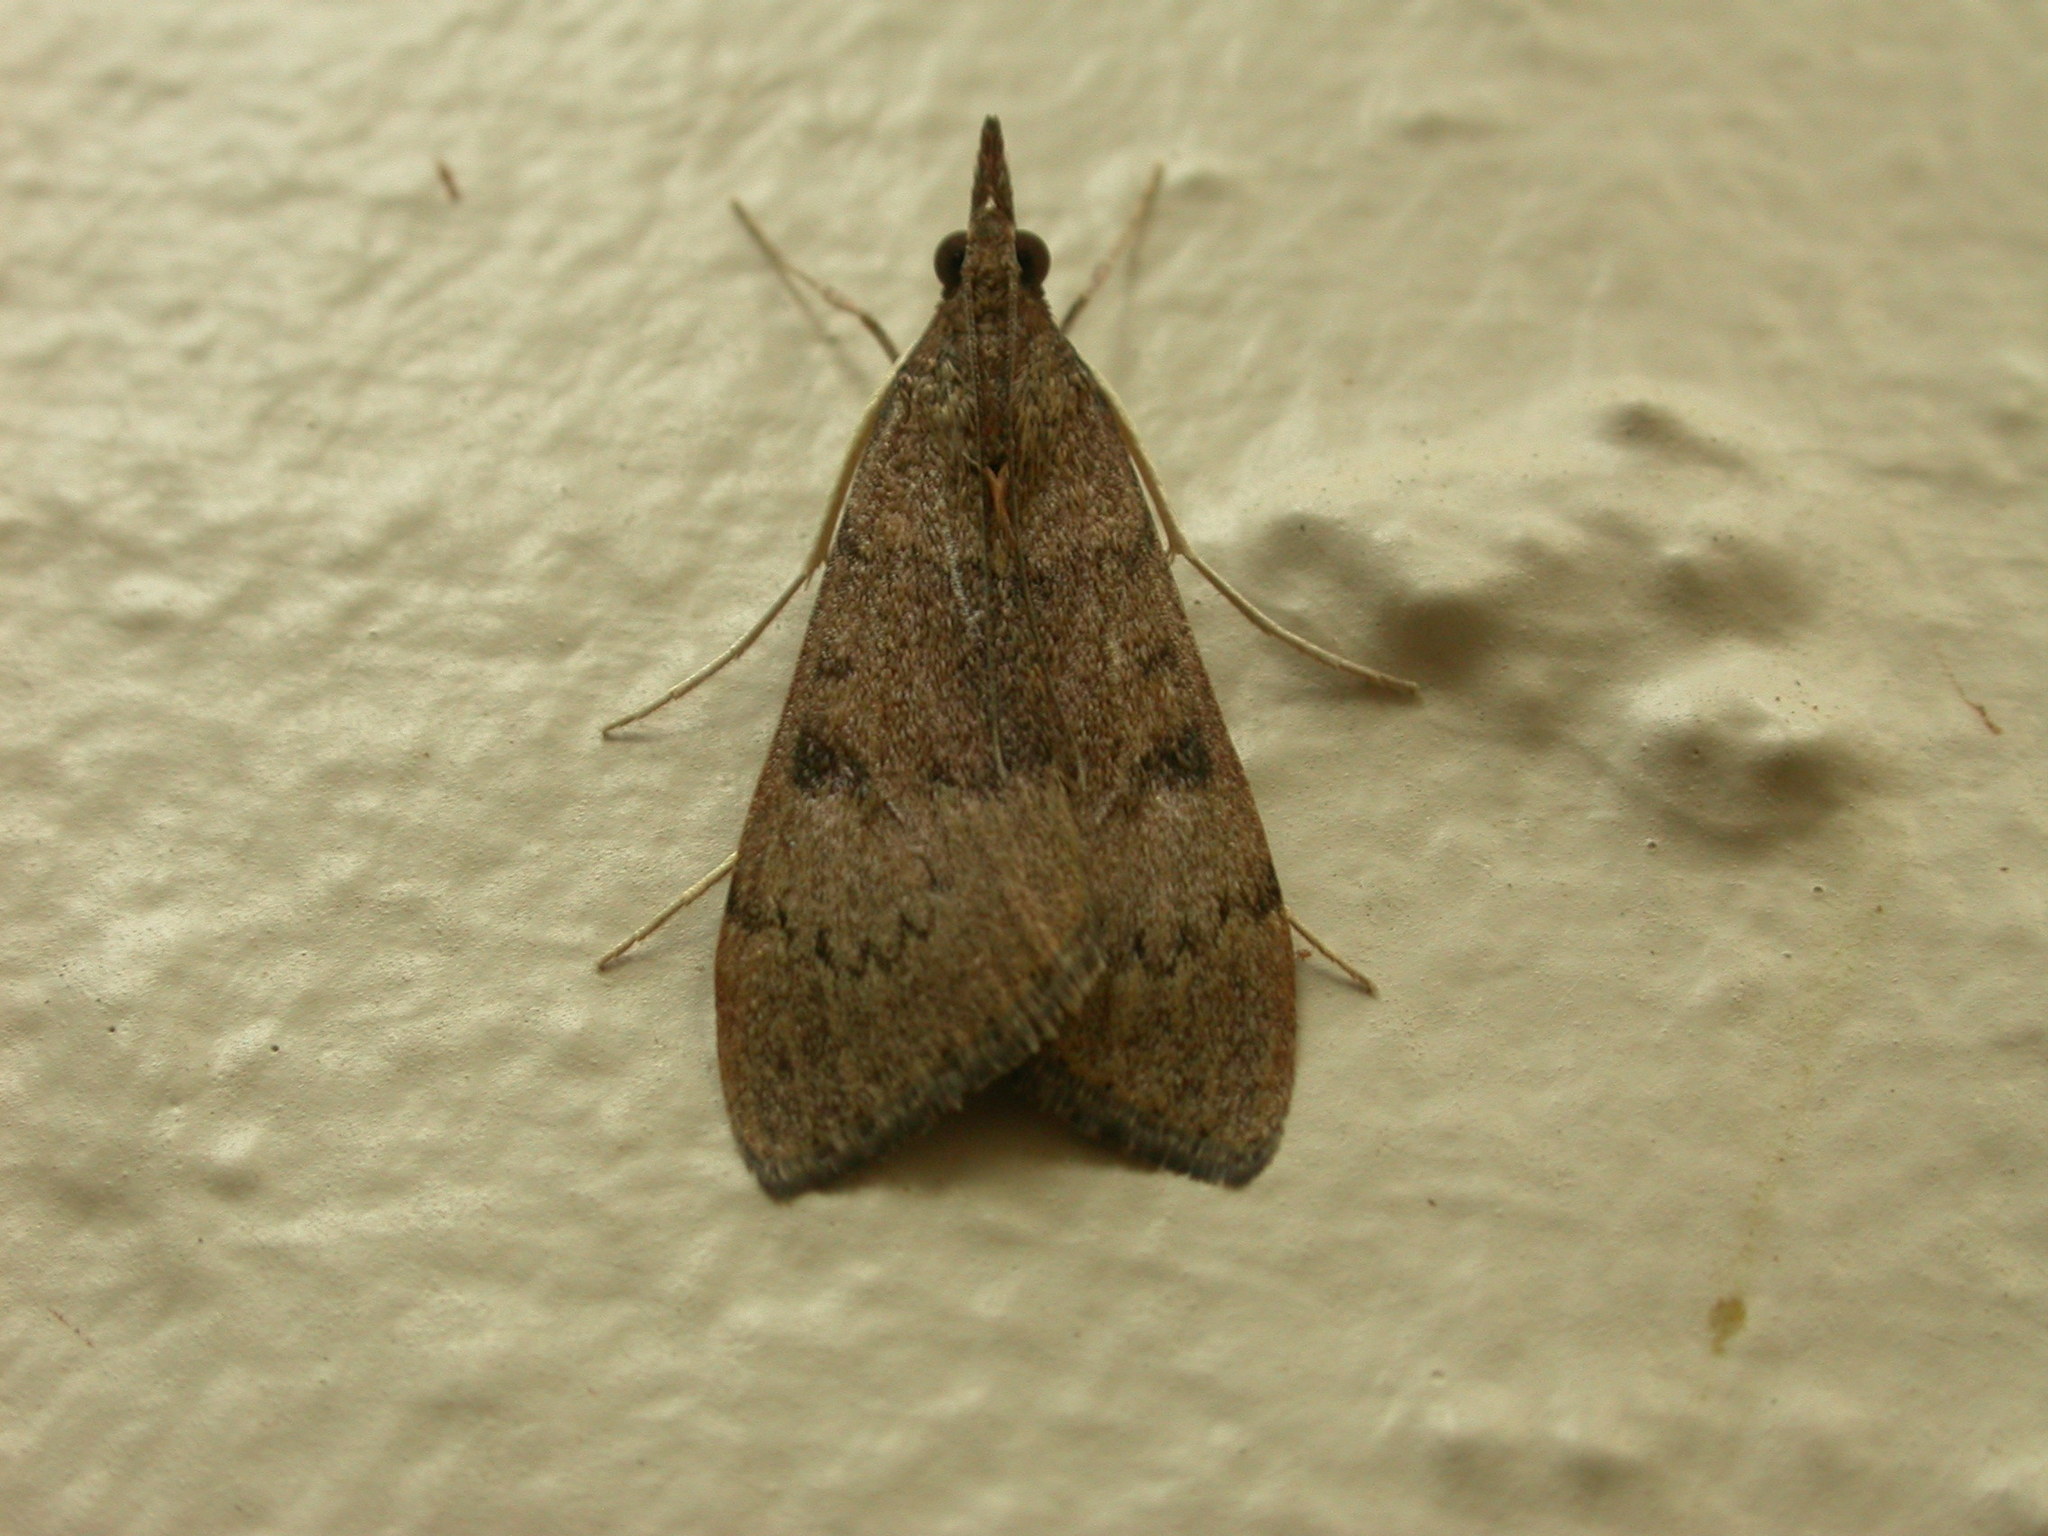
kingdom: Animalia
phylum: Arthropoda
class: Insecta
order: Lepidoptera
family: Crambidae
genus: Uresiphita
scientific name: Uresiphita ornithopteralis
